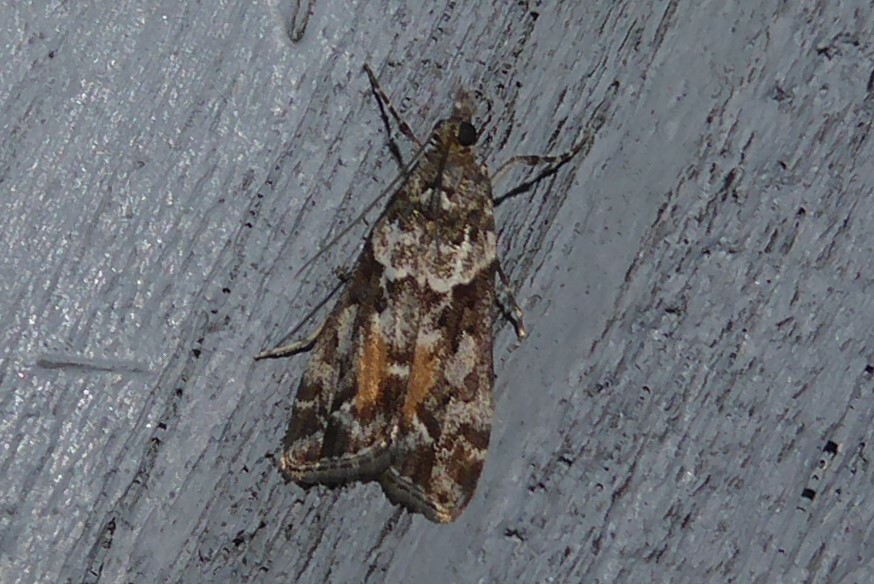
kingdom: Animalia
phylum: Arthropoda
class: Insecta
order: Lepidoptera
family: Crambidae
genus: Eudonia
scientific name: Eudonia submarginalis
